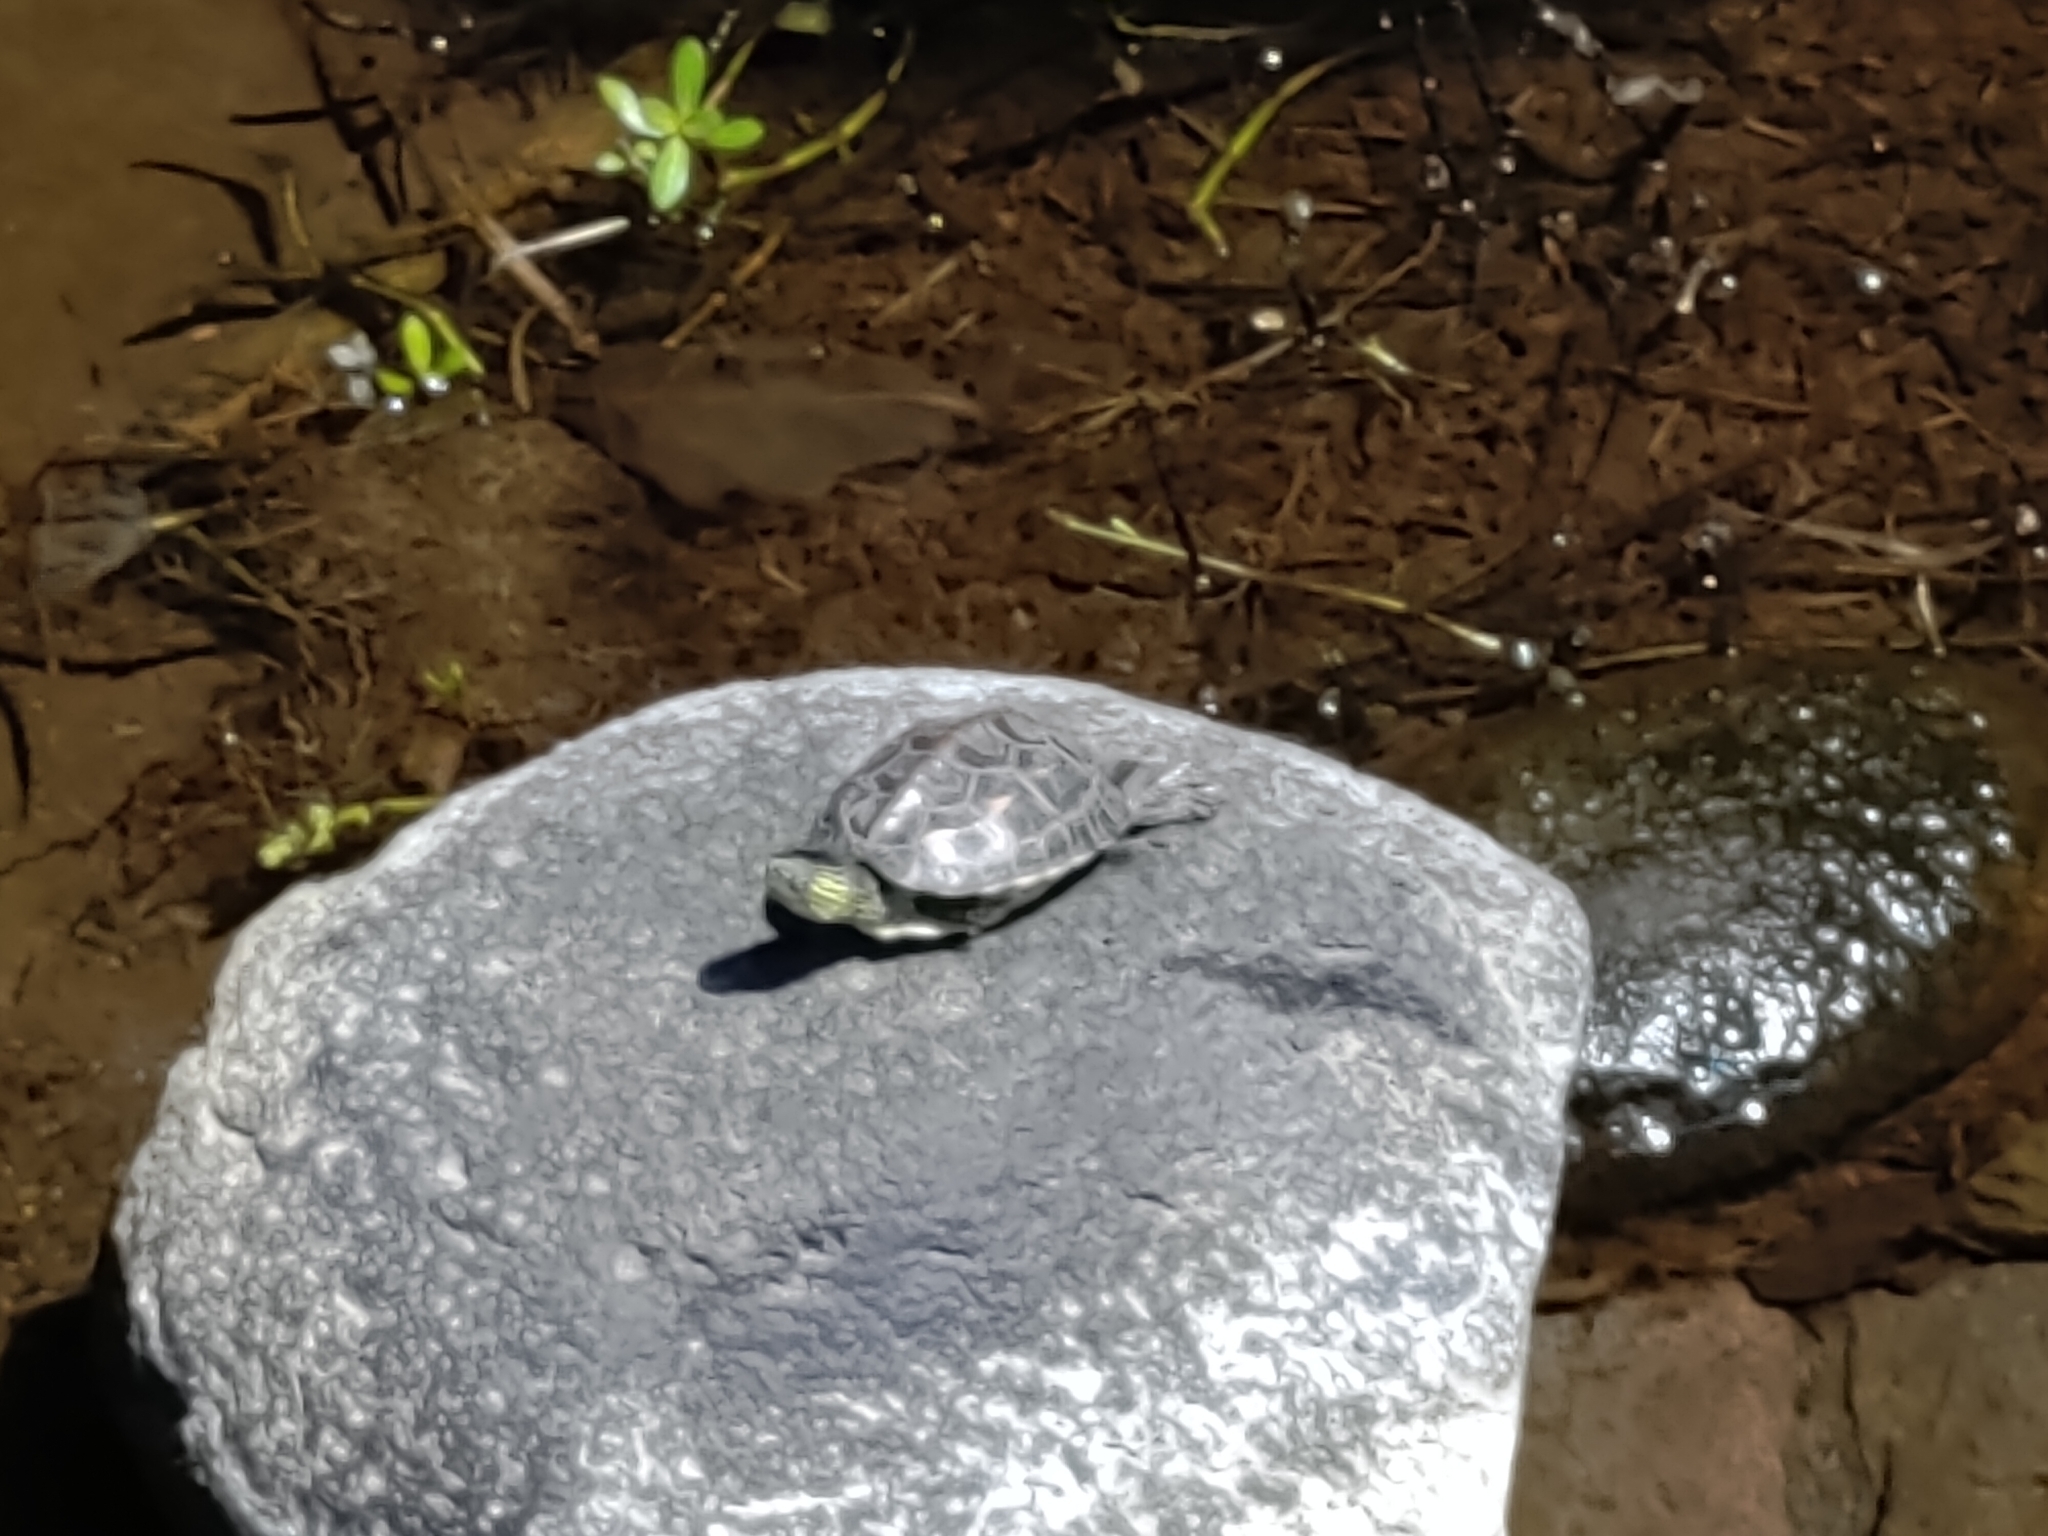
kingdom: Animalia
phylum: Chordata
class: Testudines
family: Geoemydidae
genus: Mauremys
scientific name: Mauremys sinensis
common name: Chinese stripe-necked turtle
